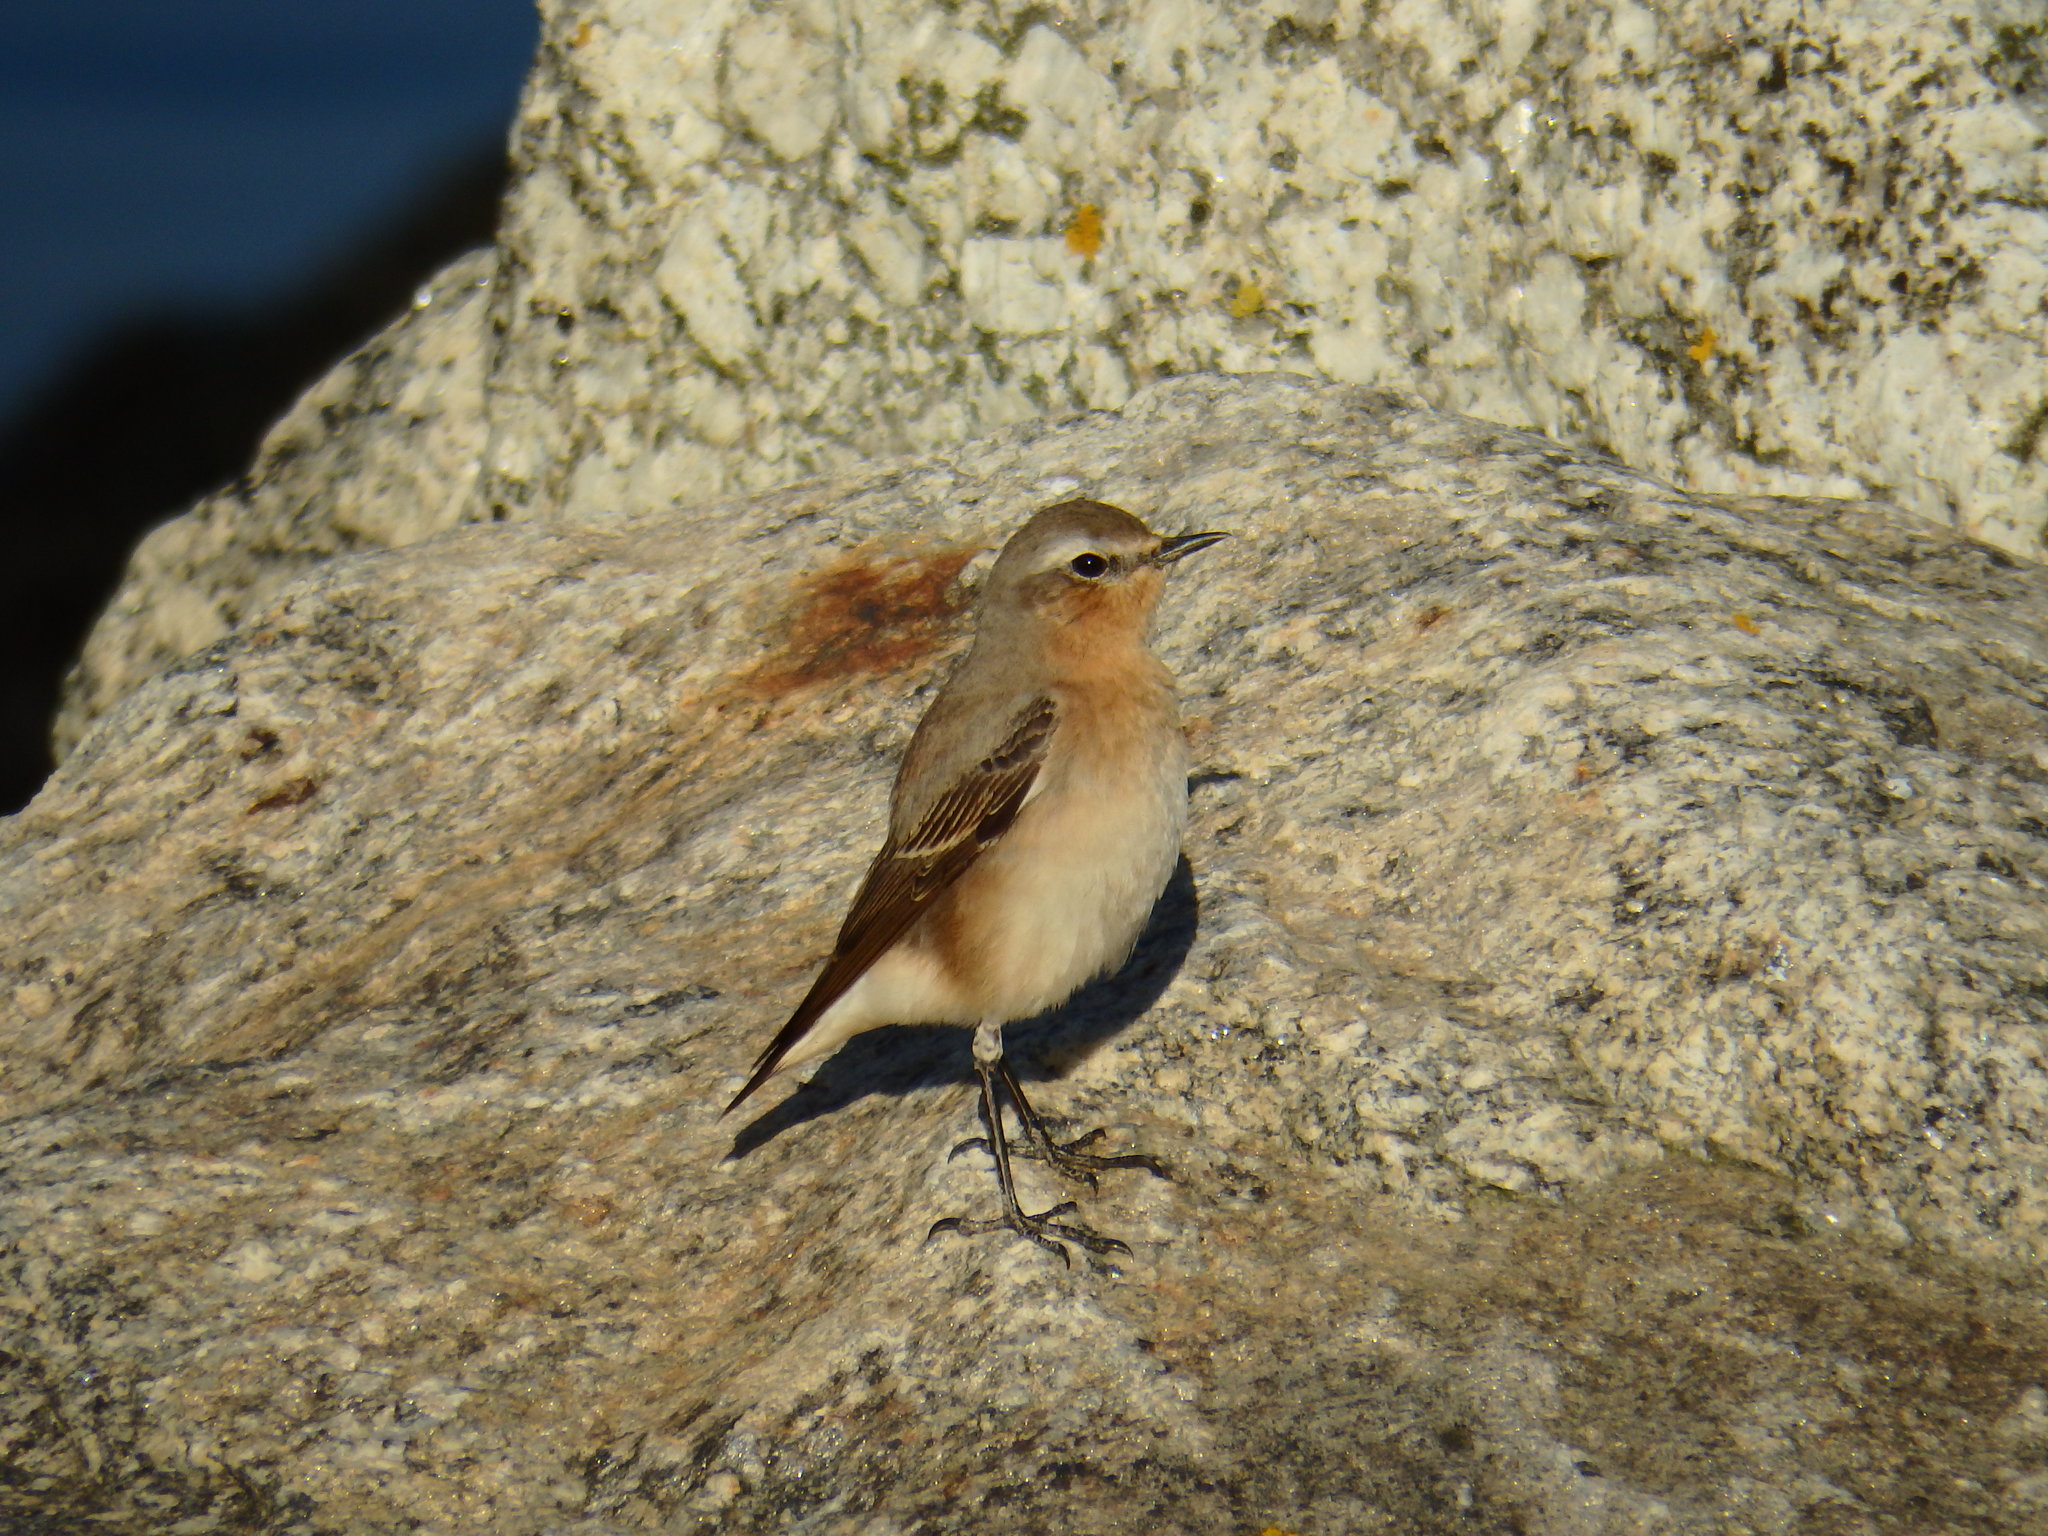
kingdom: Animalia
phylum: Chordata
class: Aves
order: Passeriformes
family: Muscicapidae
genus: Oenanthe
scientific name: Oenanthe oenanthe
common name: Northern wheatear
